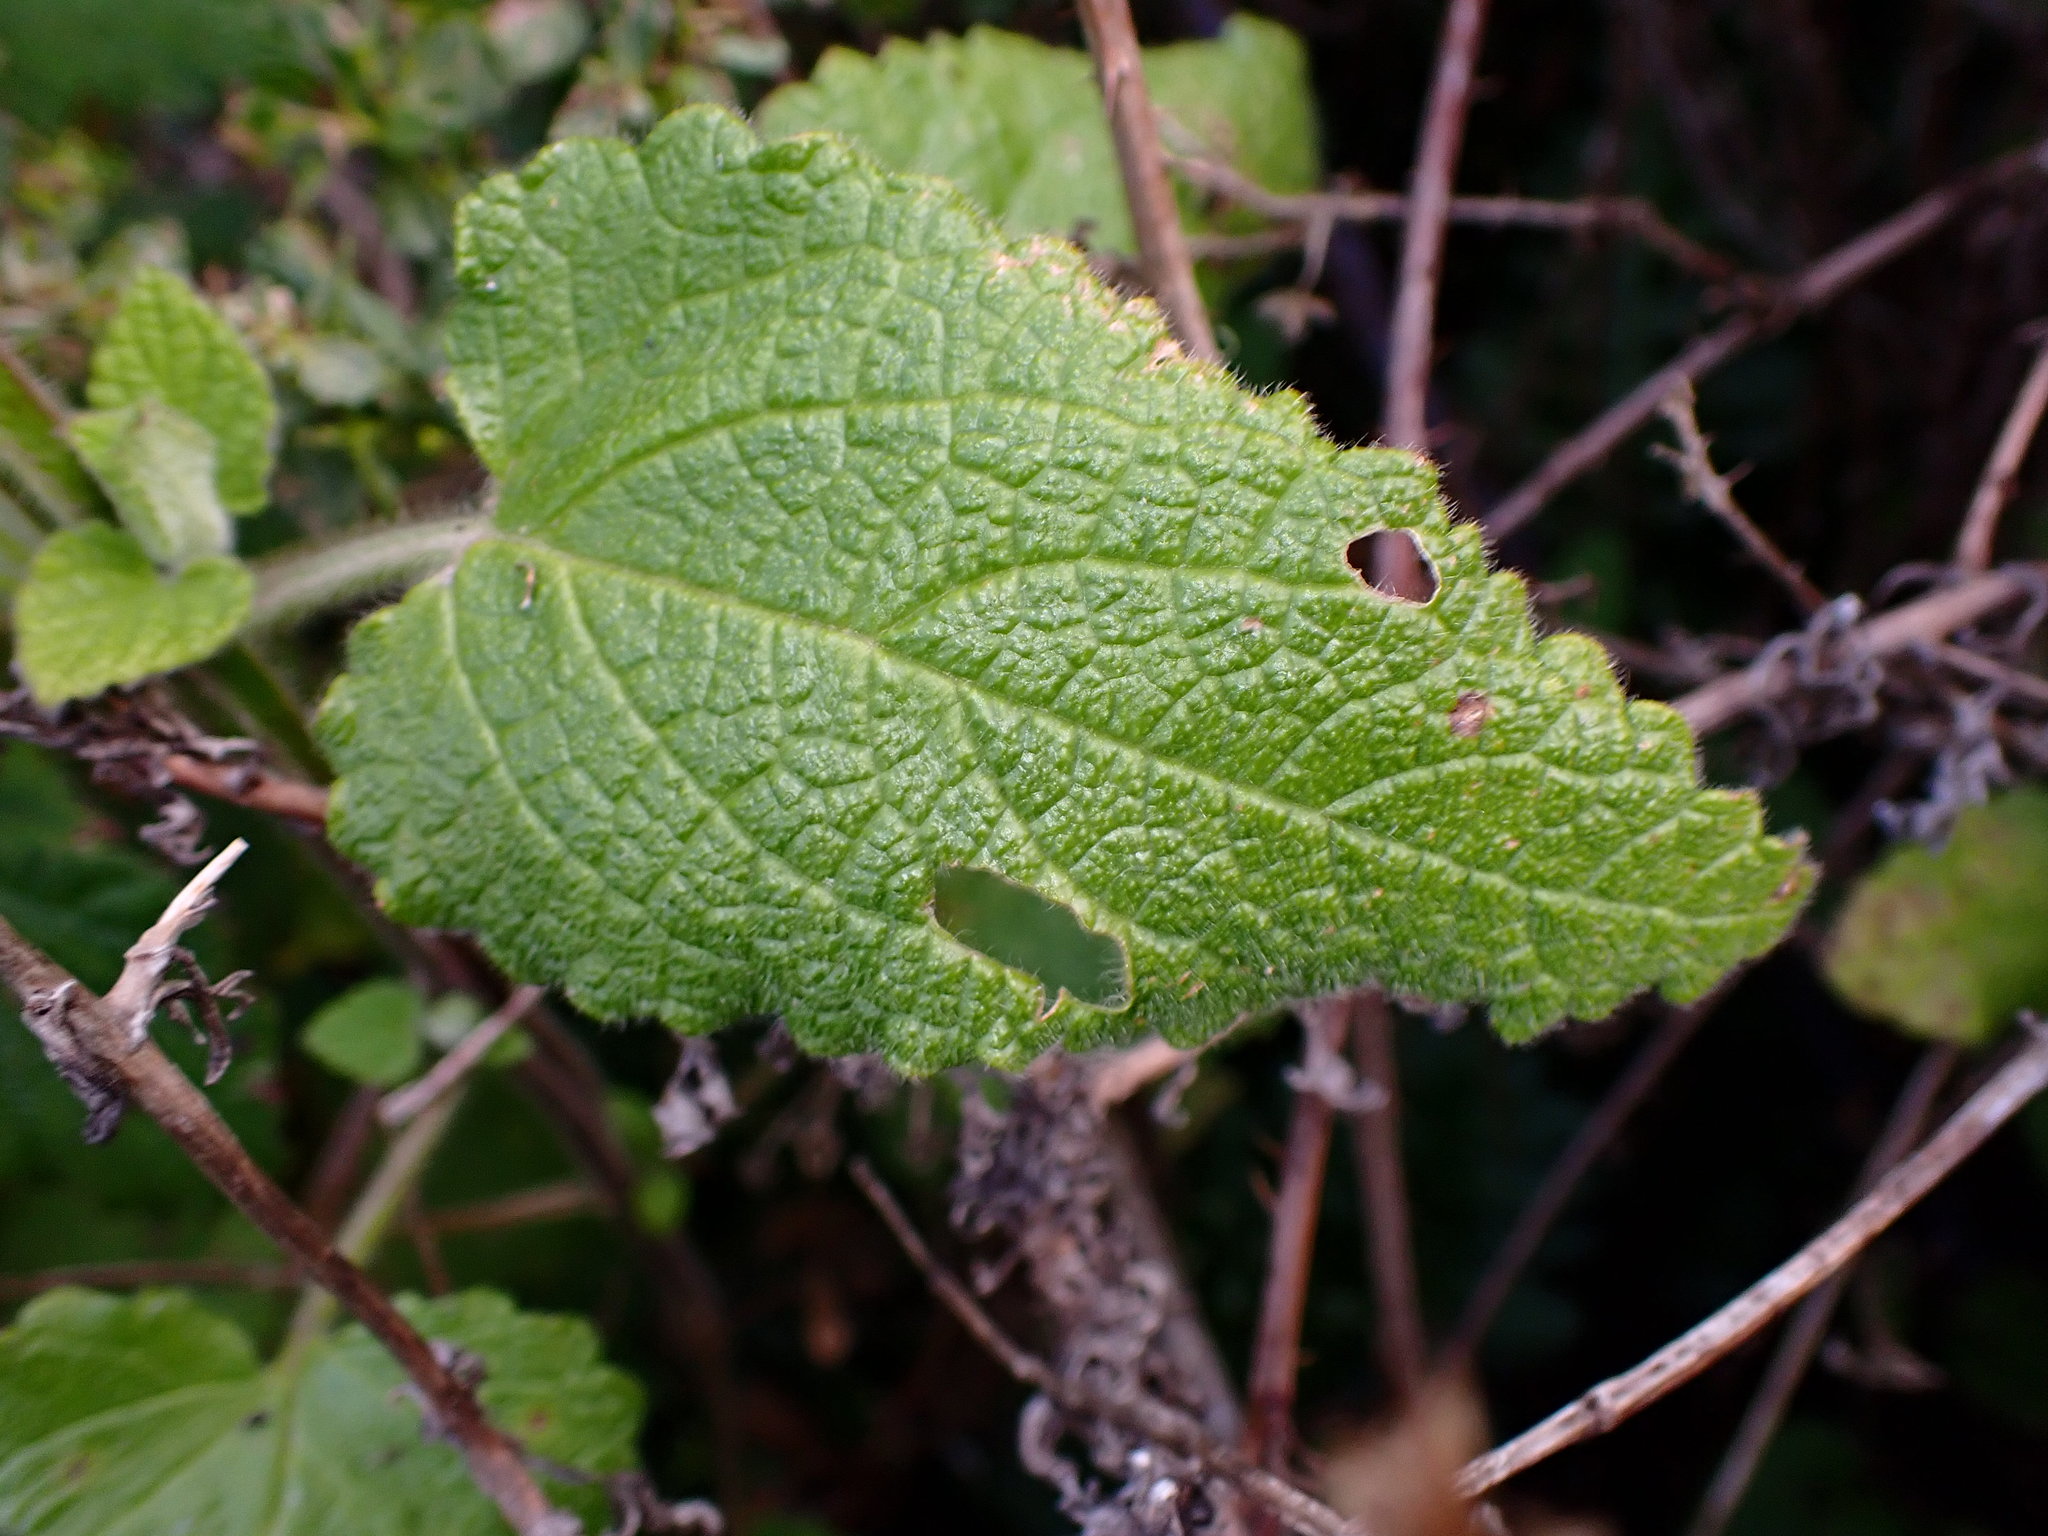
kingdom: Plantae
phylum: Tracheophyta
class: Magnoliopsida
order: Lamiales
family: Lamiaceae
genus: Stachys
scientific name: Stachys bullata
